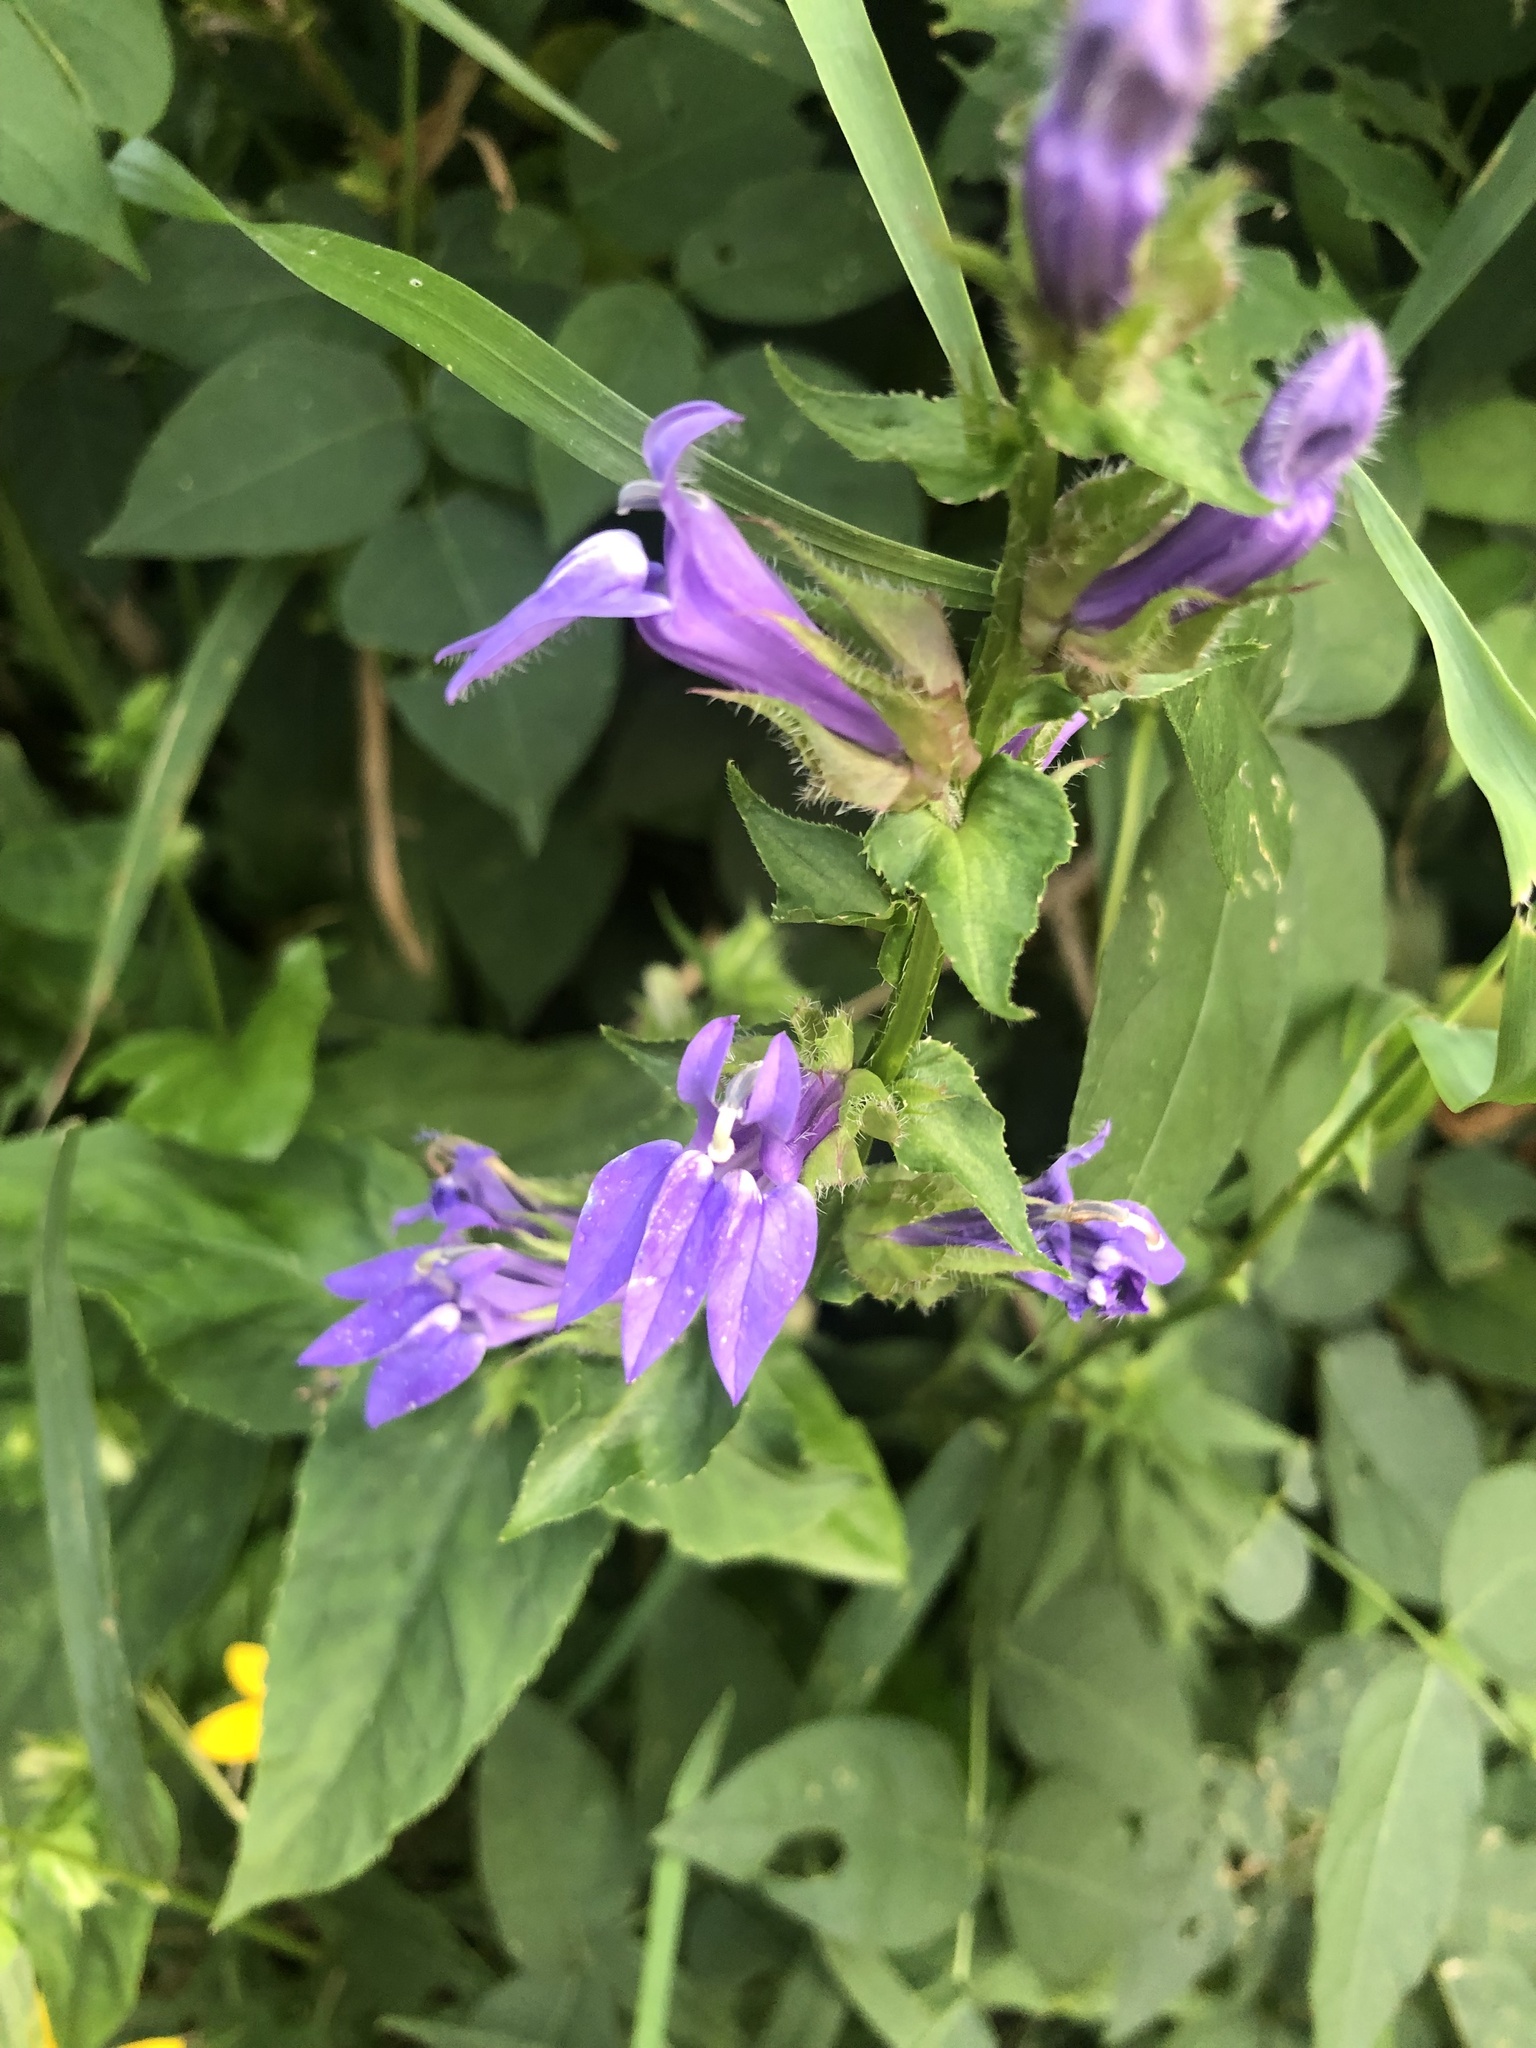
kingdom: Plantae
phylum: Tracheophyta
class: Magnoliopsida
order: Asterales
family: Campanulaceae
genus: Lobelia
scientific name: Lobelia siphilitica
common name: Great lobelia
